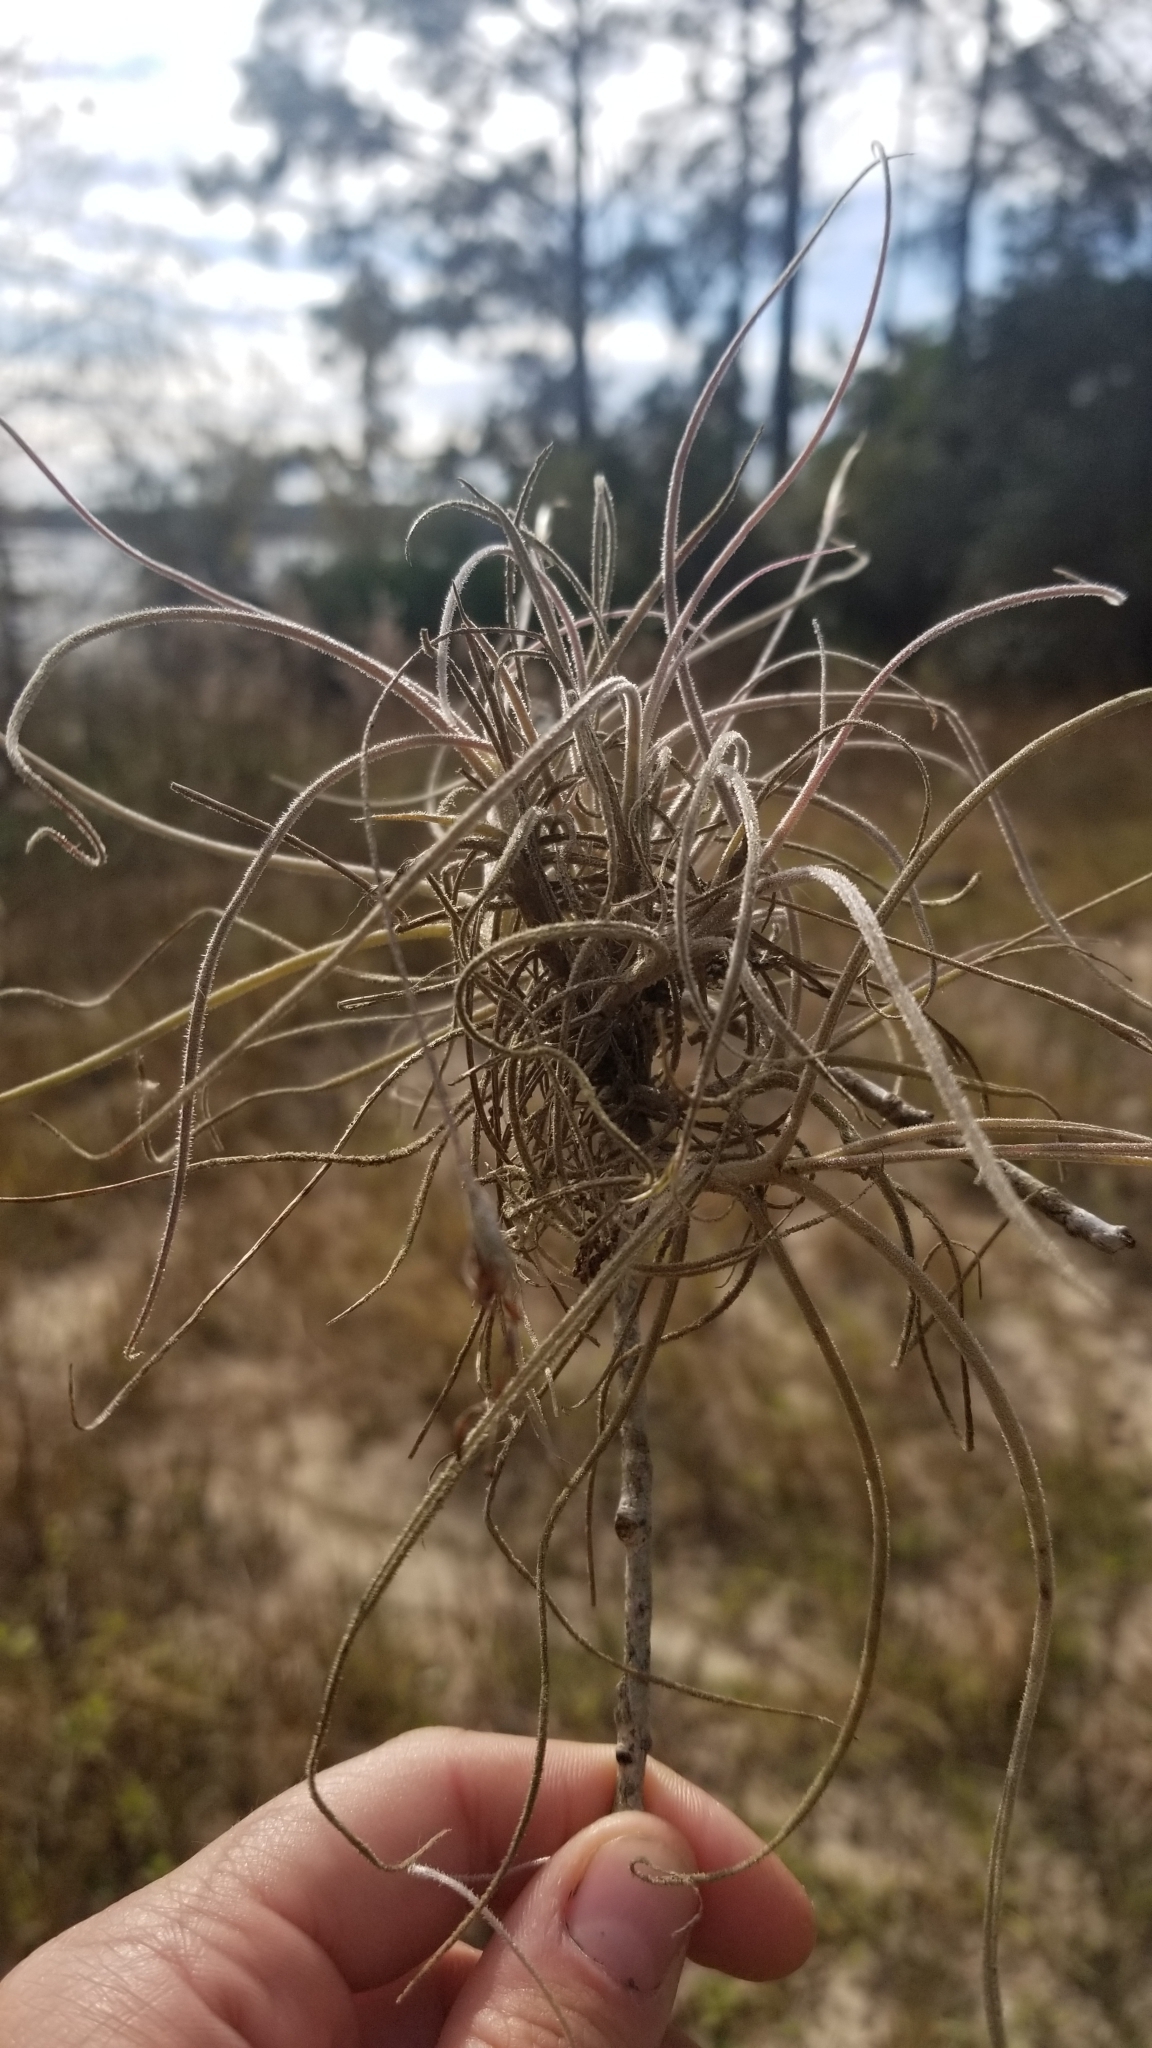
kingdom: Plantae
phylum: Tracheophyta
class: Liliopsida
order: Poales
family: Bromeliaceae
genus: Tillandsia
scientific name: Tillandsia recurvata
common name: Small ballmoss
